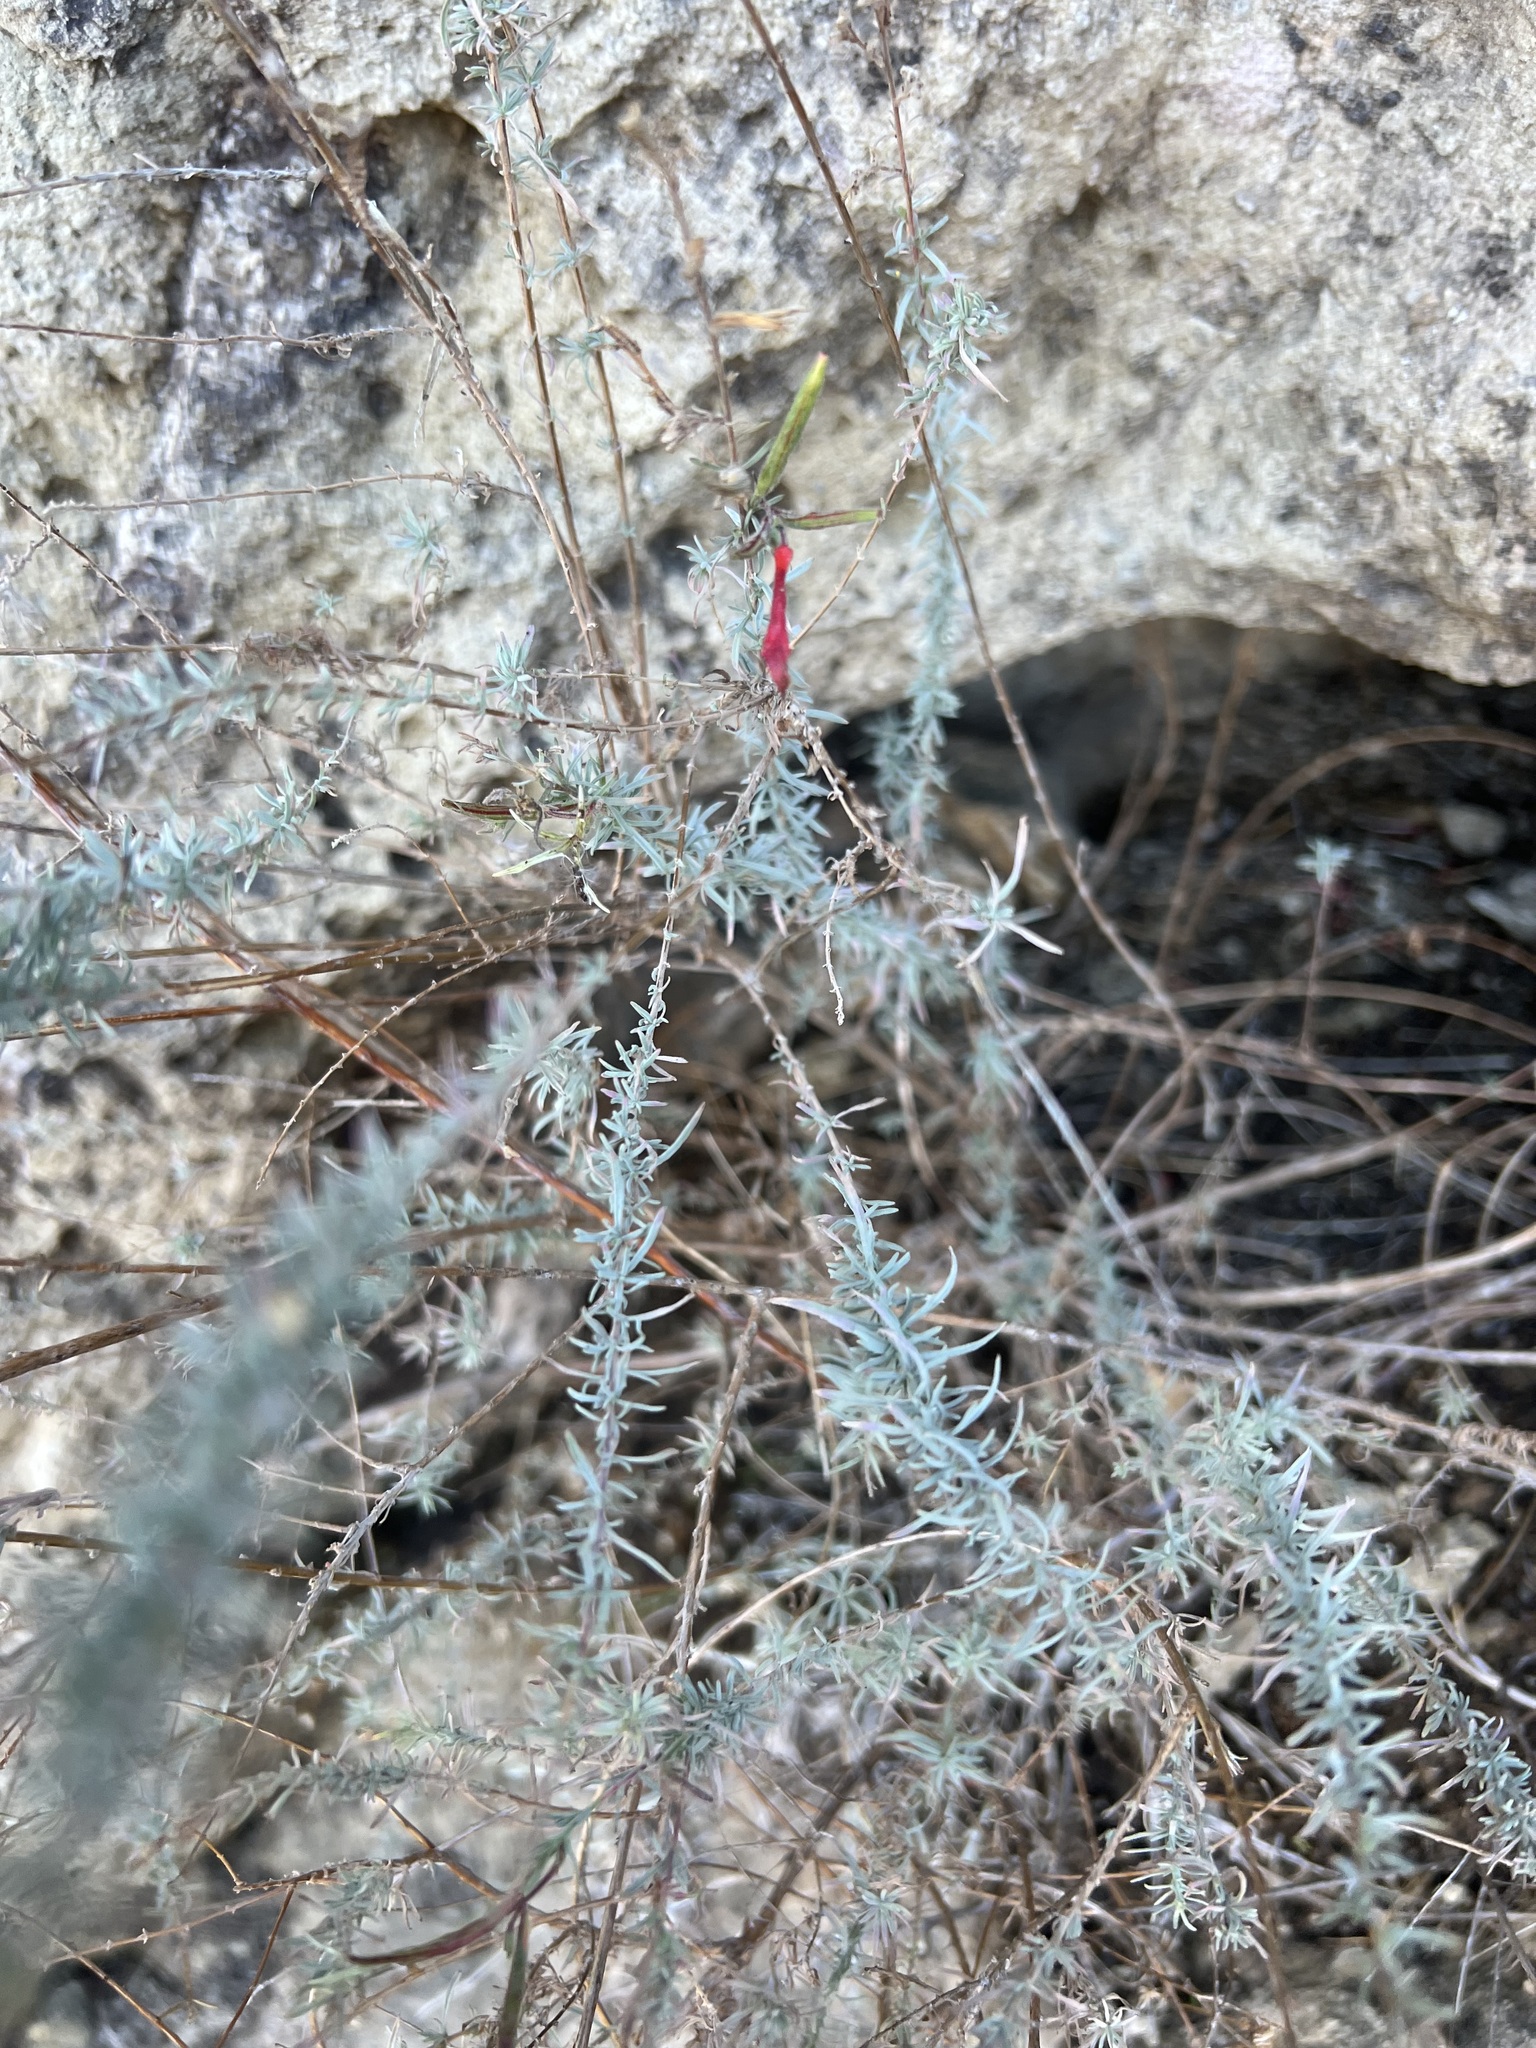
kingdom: Plantae
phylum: Tracheophyta
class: Magnoliopsida
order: Myrtales
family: Onagraceae
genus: Epilobium
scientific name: Epilobium canum
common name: California-fuchsia
